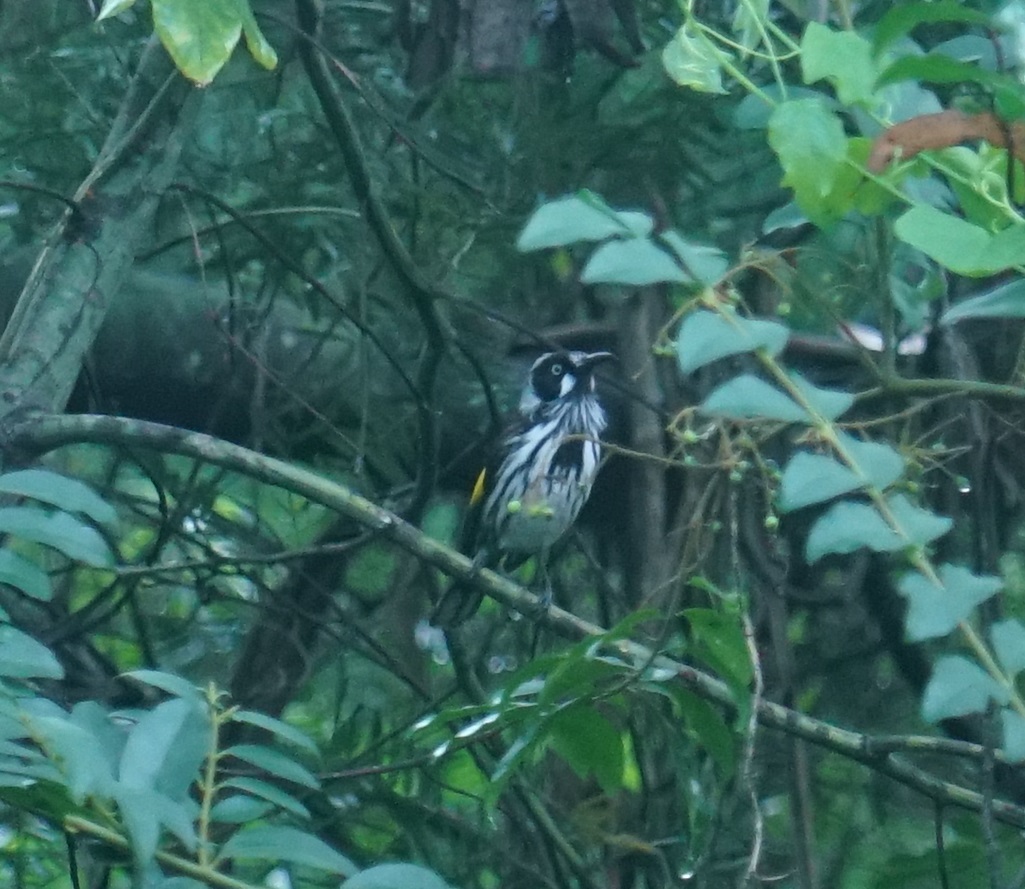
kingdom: Animalia
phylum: Chordata
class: Aves
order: Passeriformes
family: Meliphagidae
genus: Phylidonyris
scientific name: Phylidonyris novaehollandiae
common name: New holland honeyeater
